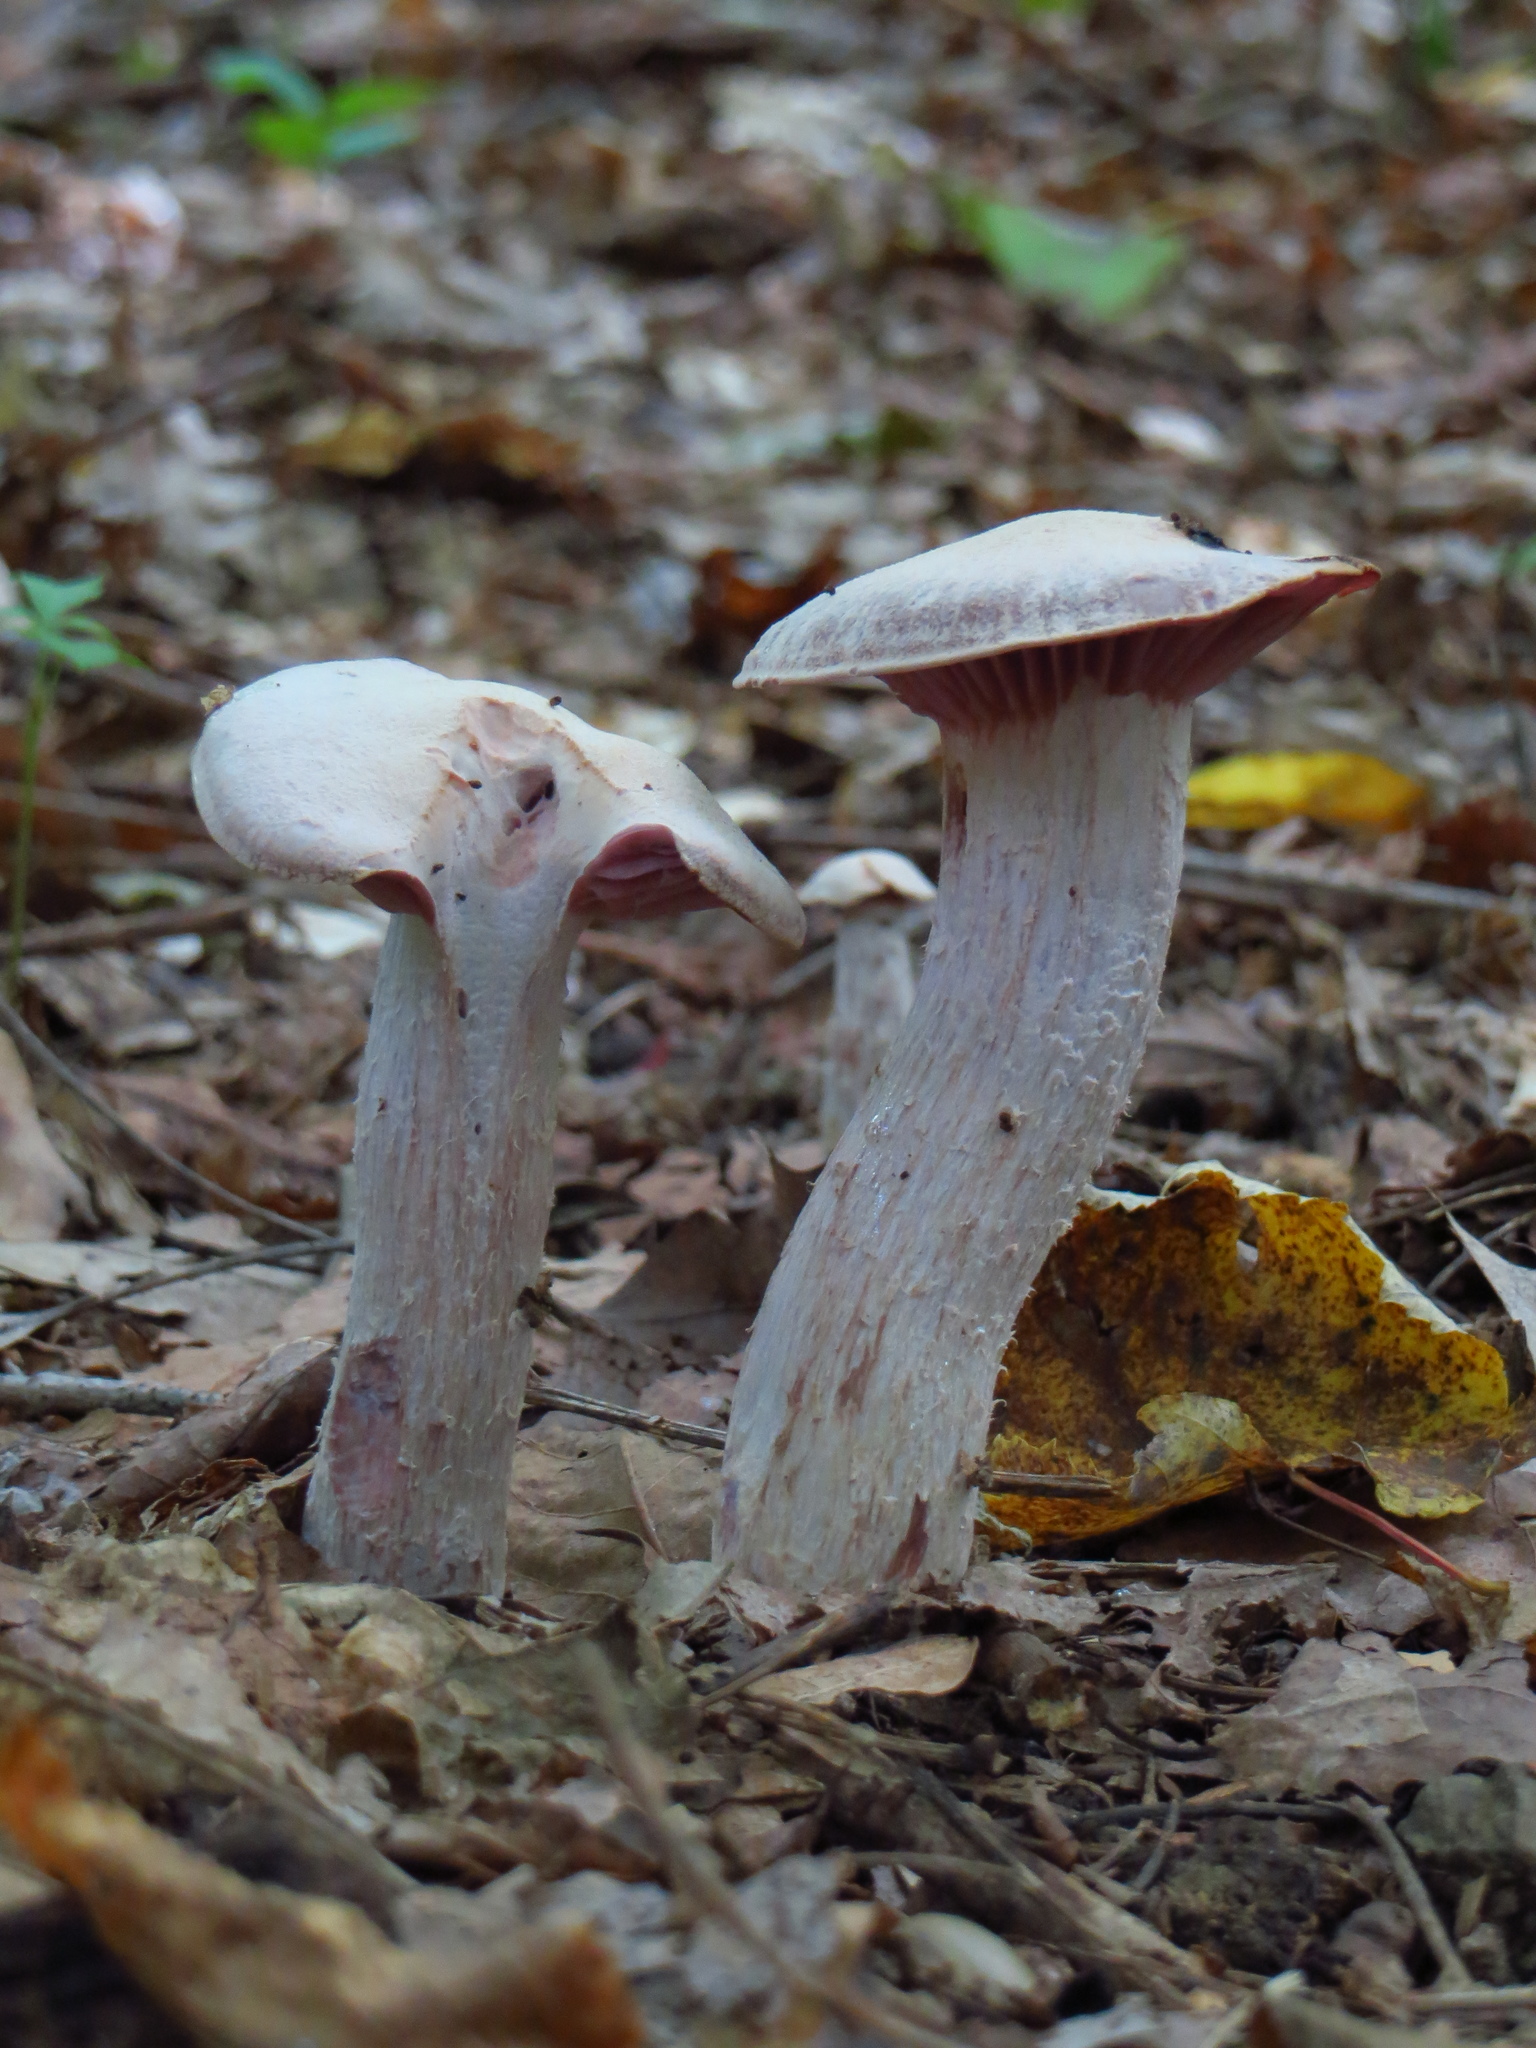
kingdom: Fungi
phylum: Basidiomycota
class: Agaricomycetes
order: Agaricales
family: Hydnangiaceae
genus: Laccaria
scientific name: Laccaria ochropurpurea
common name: Purple laccaria
